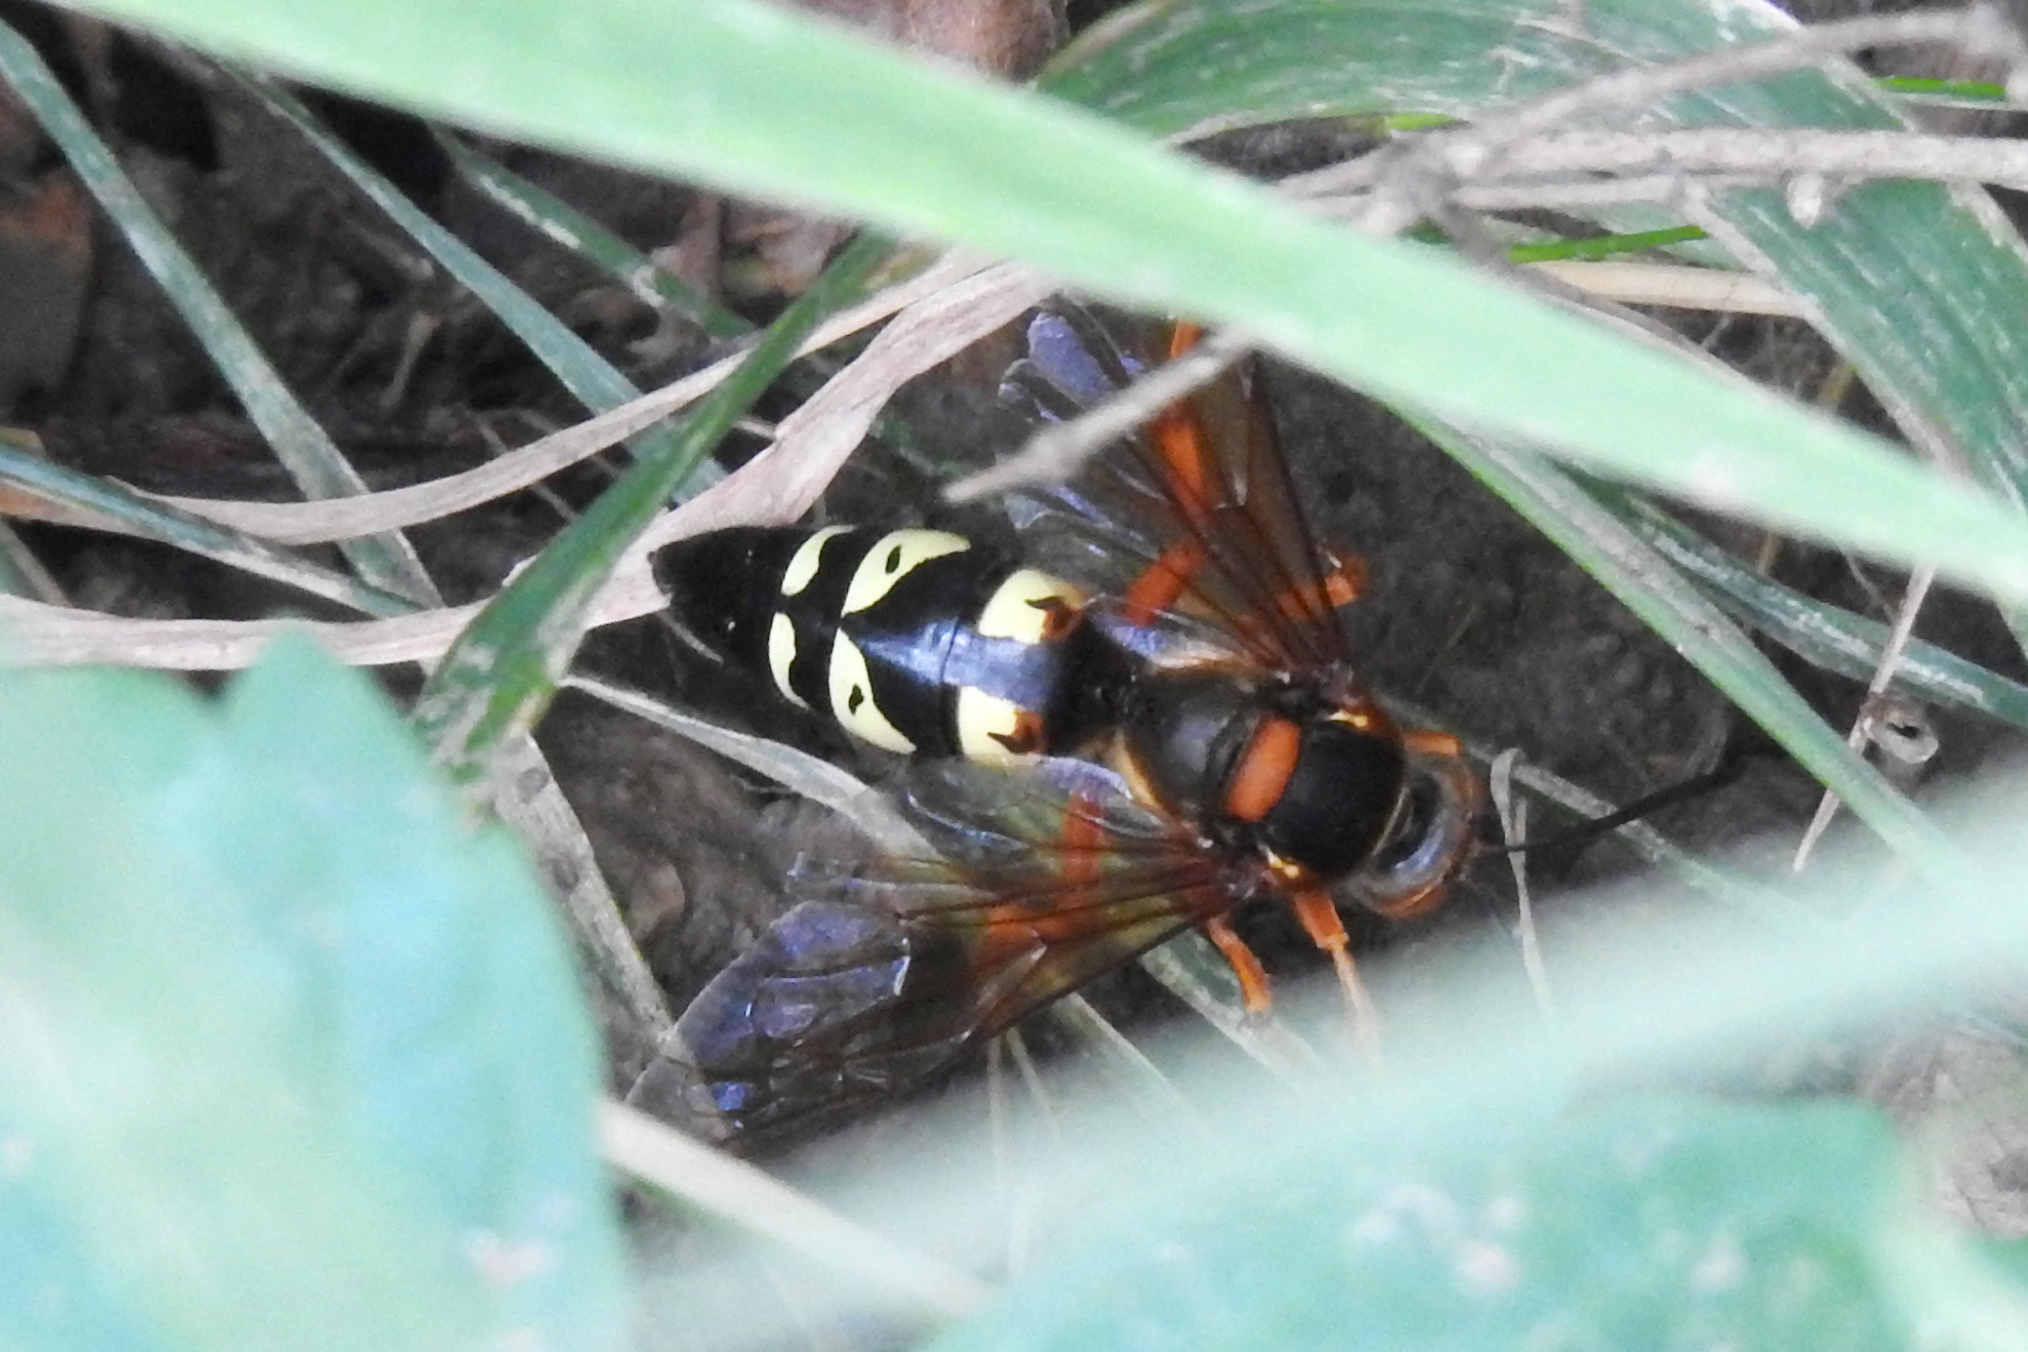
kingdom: Animalia
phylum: Arthropoda
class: Insecta
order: Hymenoptera
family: Crabronidae
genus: Sphecius
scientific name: Sphecius speciosus
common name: Cicada killer
